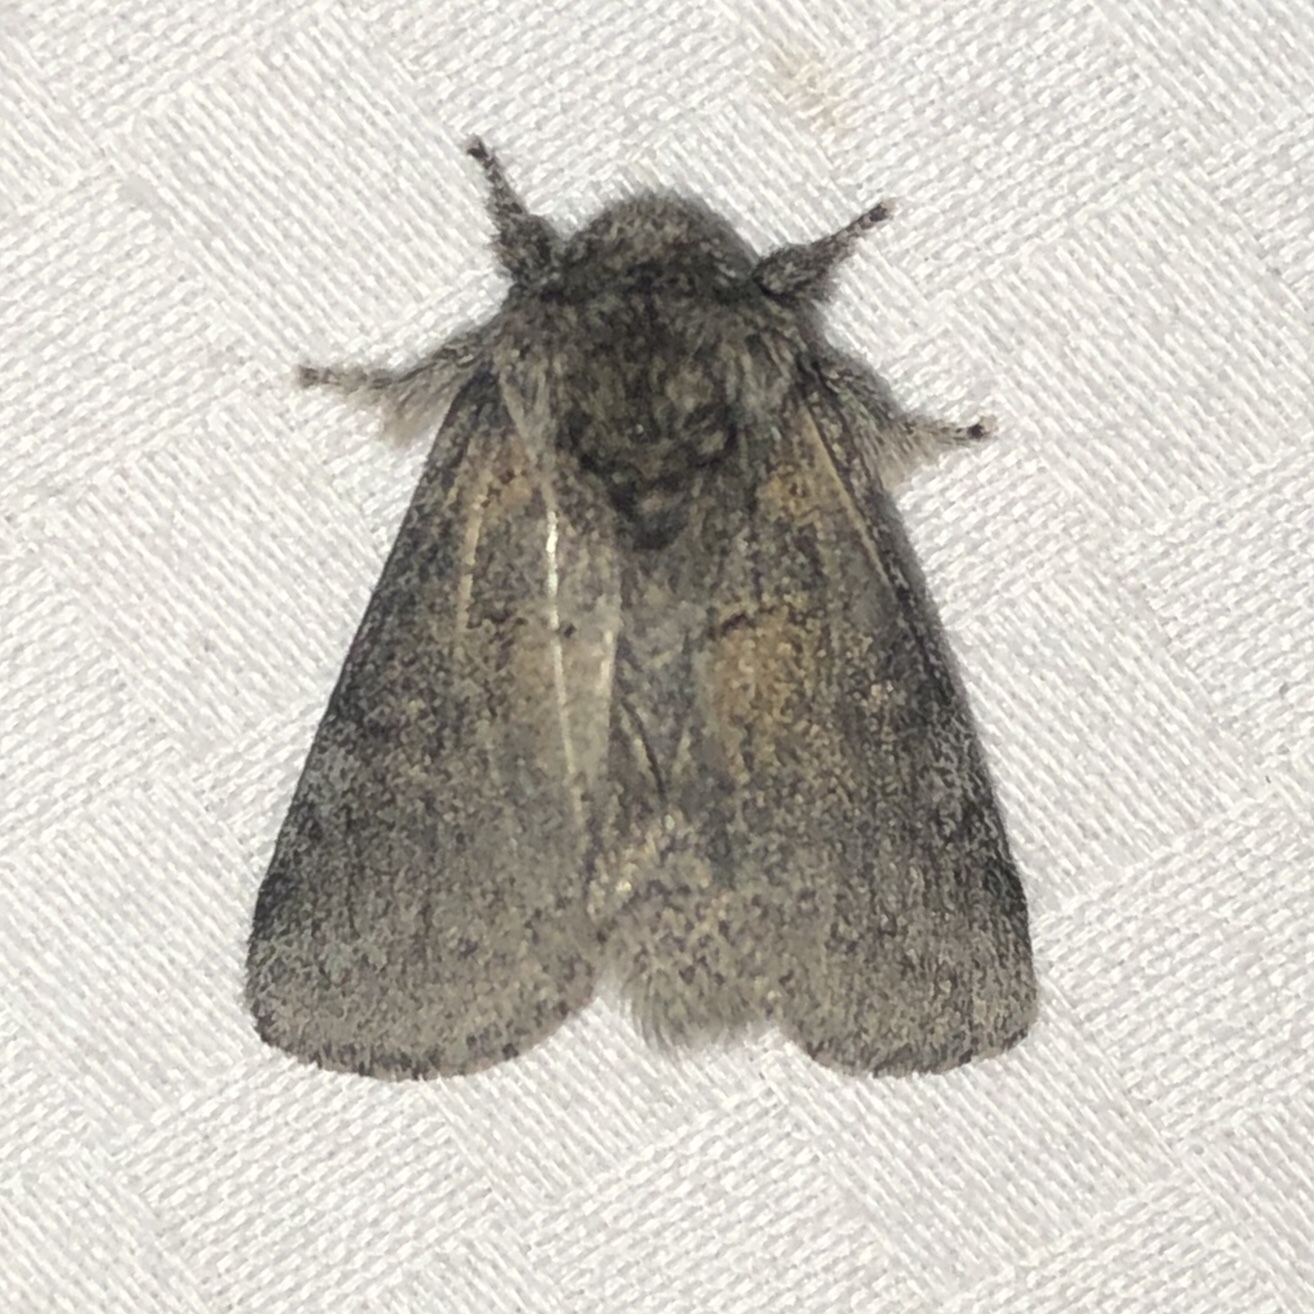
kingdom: Animalia
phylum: Arthropoda
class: Insecta
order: Lepidoptera
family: Notodontidae
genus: Gluphisia
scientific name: Gluphisia septentrionis
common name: Common gluphisia
